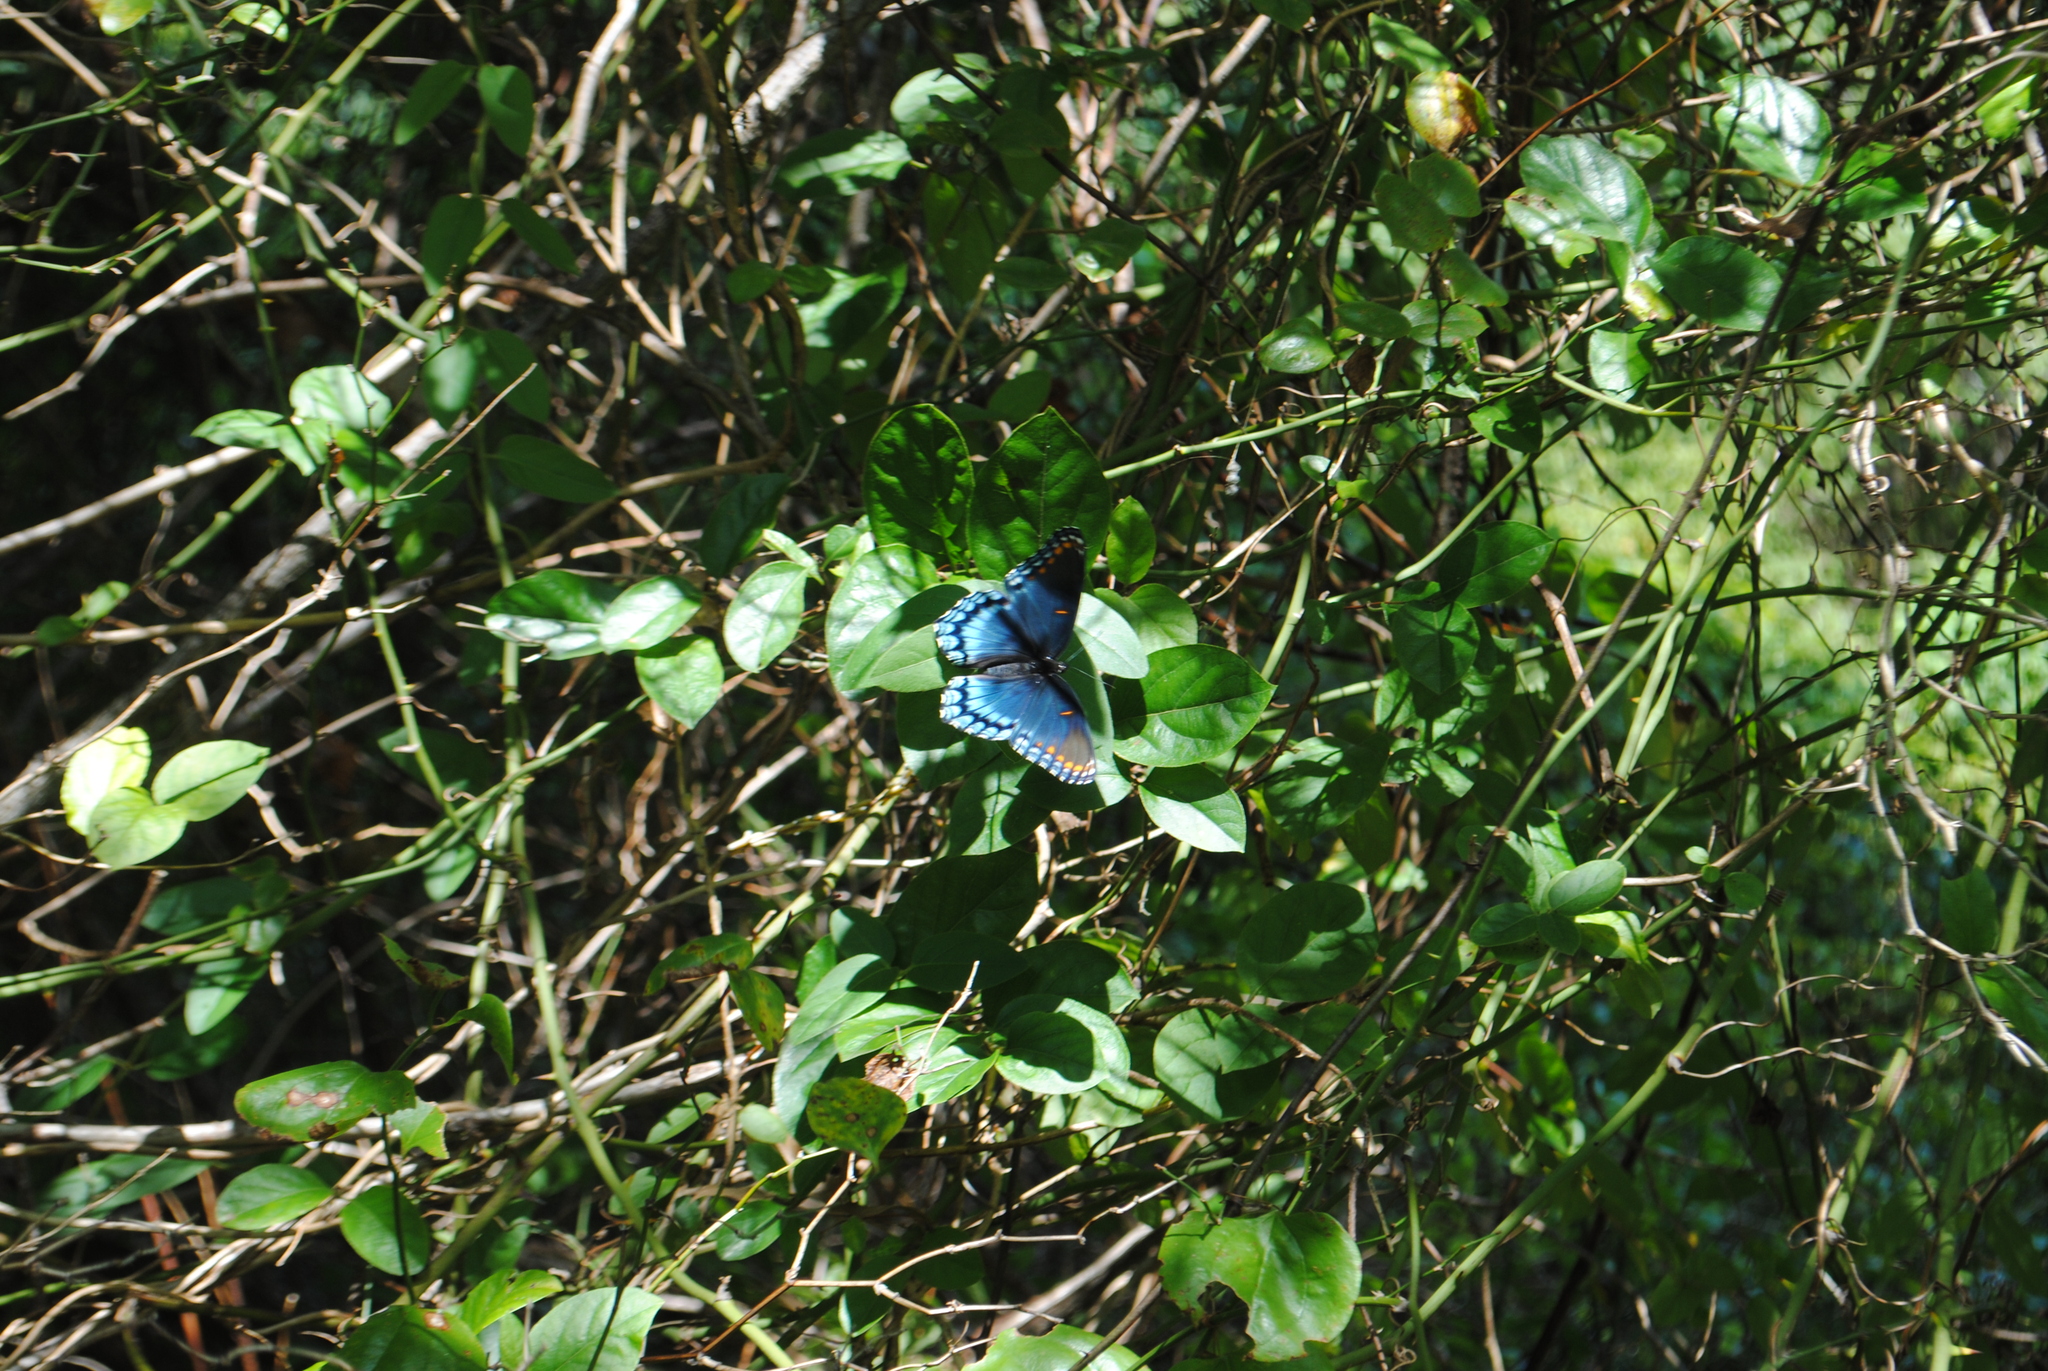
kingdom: Animalia
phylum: Arthropoda
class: Insecta
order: Lepidoptera
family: Nymphalidae
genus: Limenitis
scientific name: Limenitis astyanax
